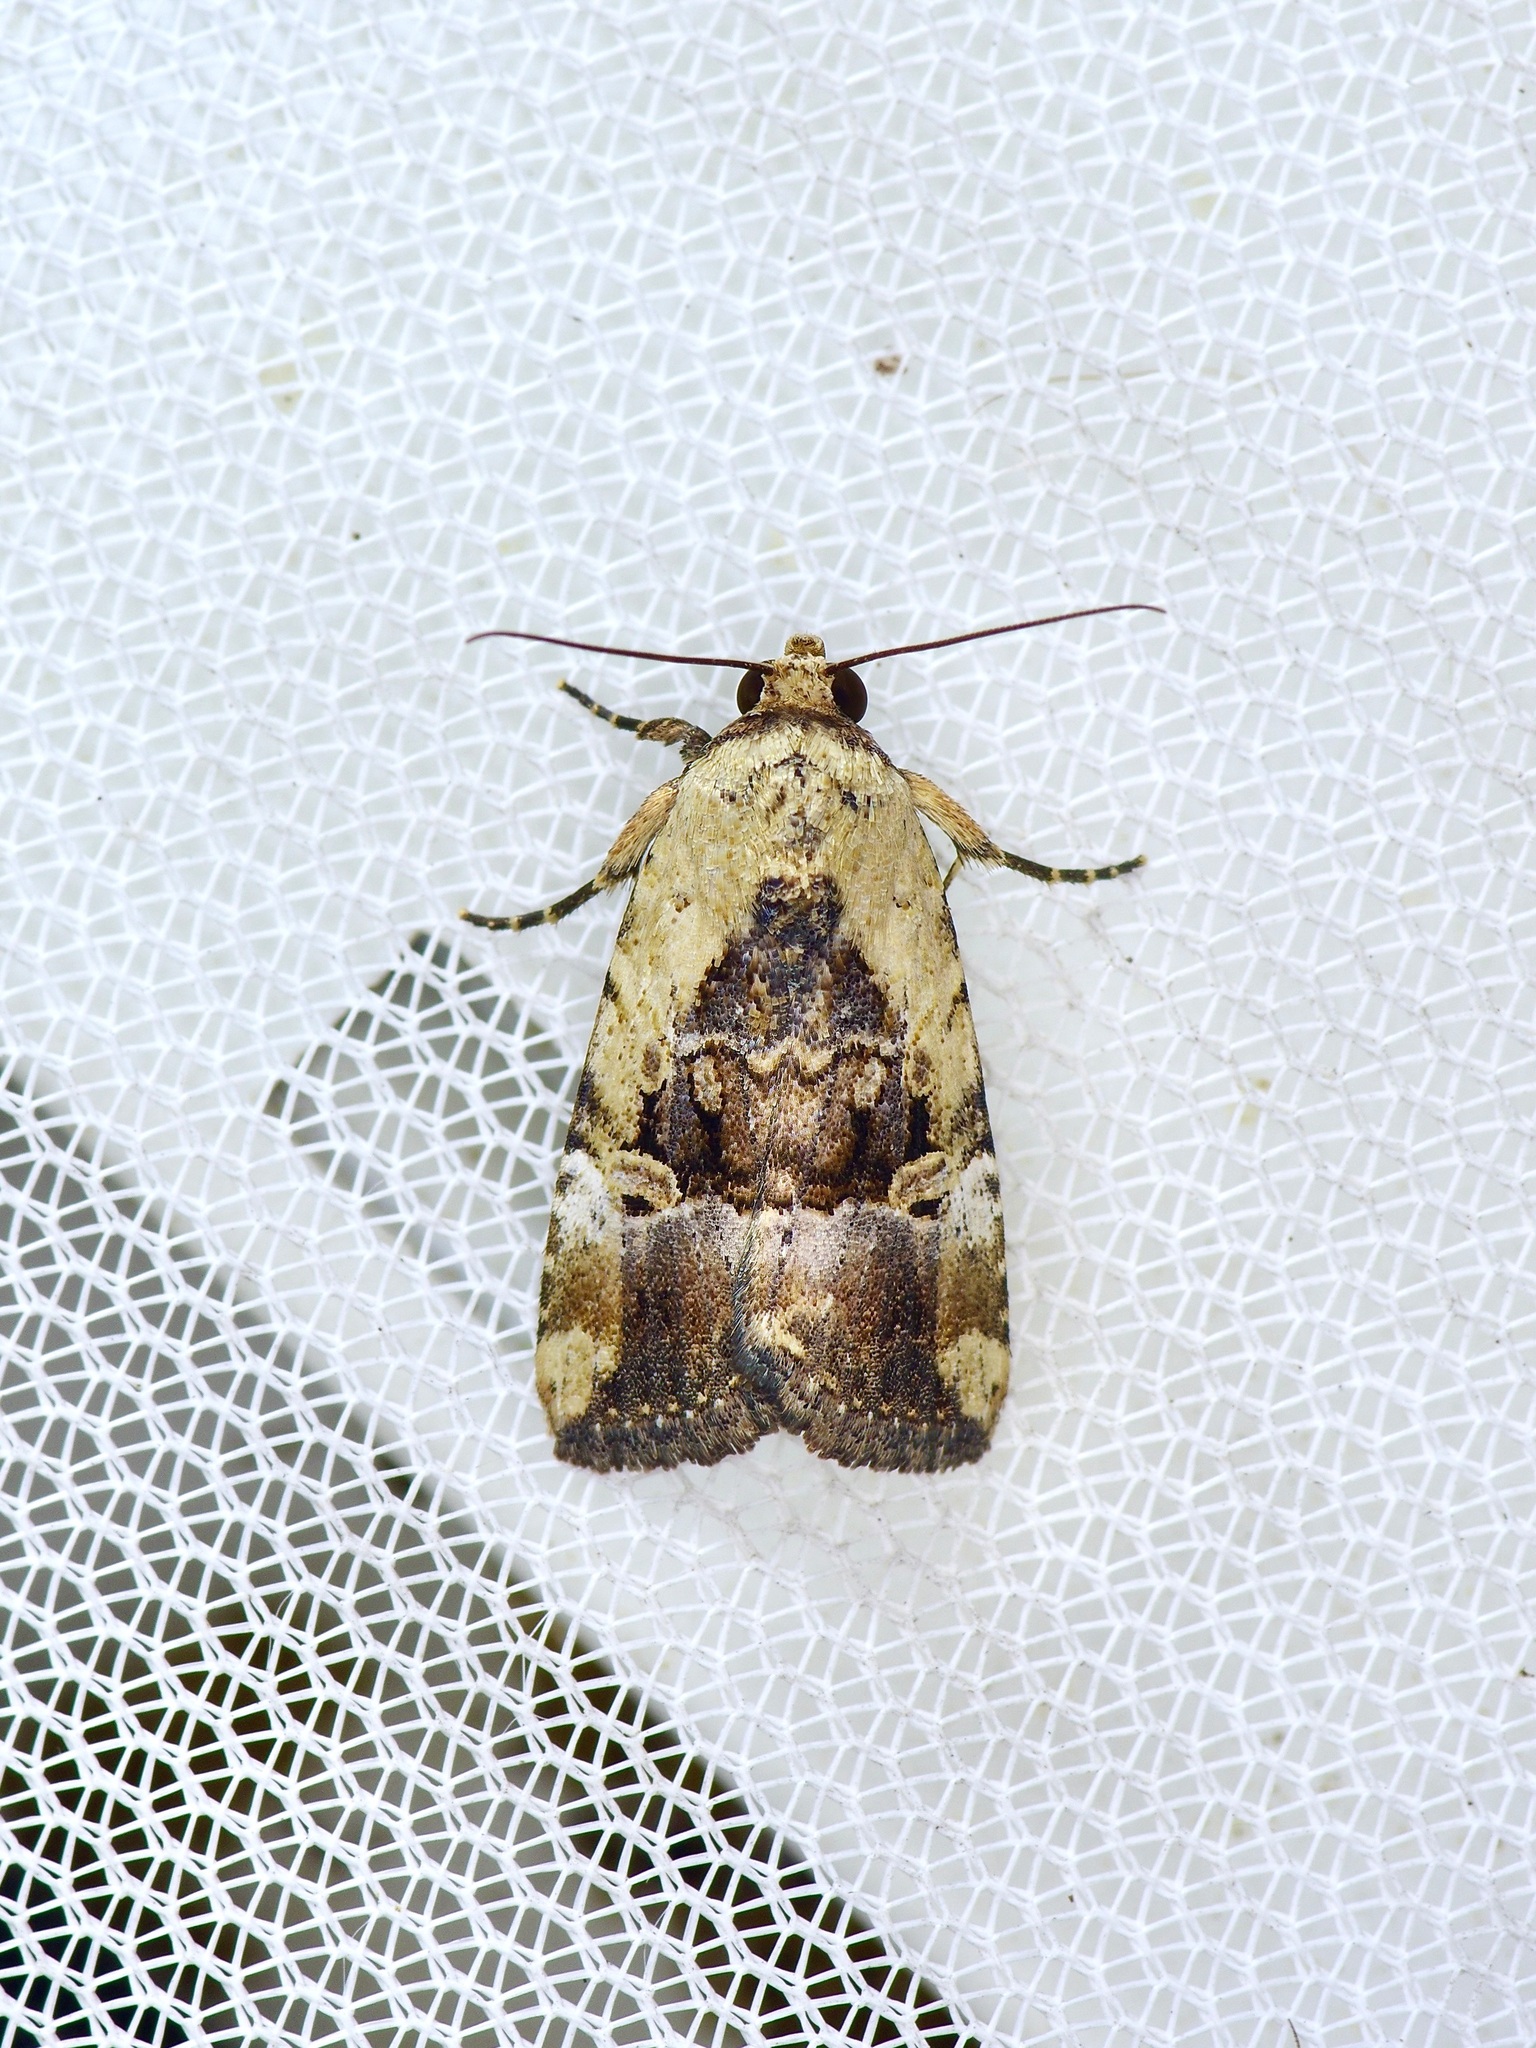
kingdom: Animalia
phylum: Arthropoda
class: Insecta
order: Lepidoptera
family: Noctuidae
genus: Elaphria
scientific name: Elaphria chalcedonia
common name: Chalcedony midget
